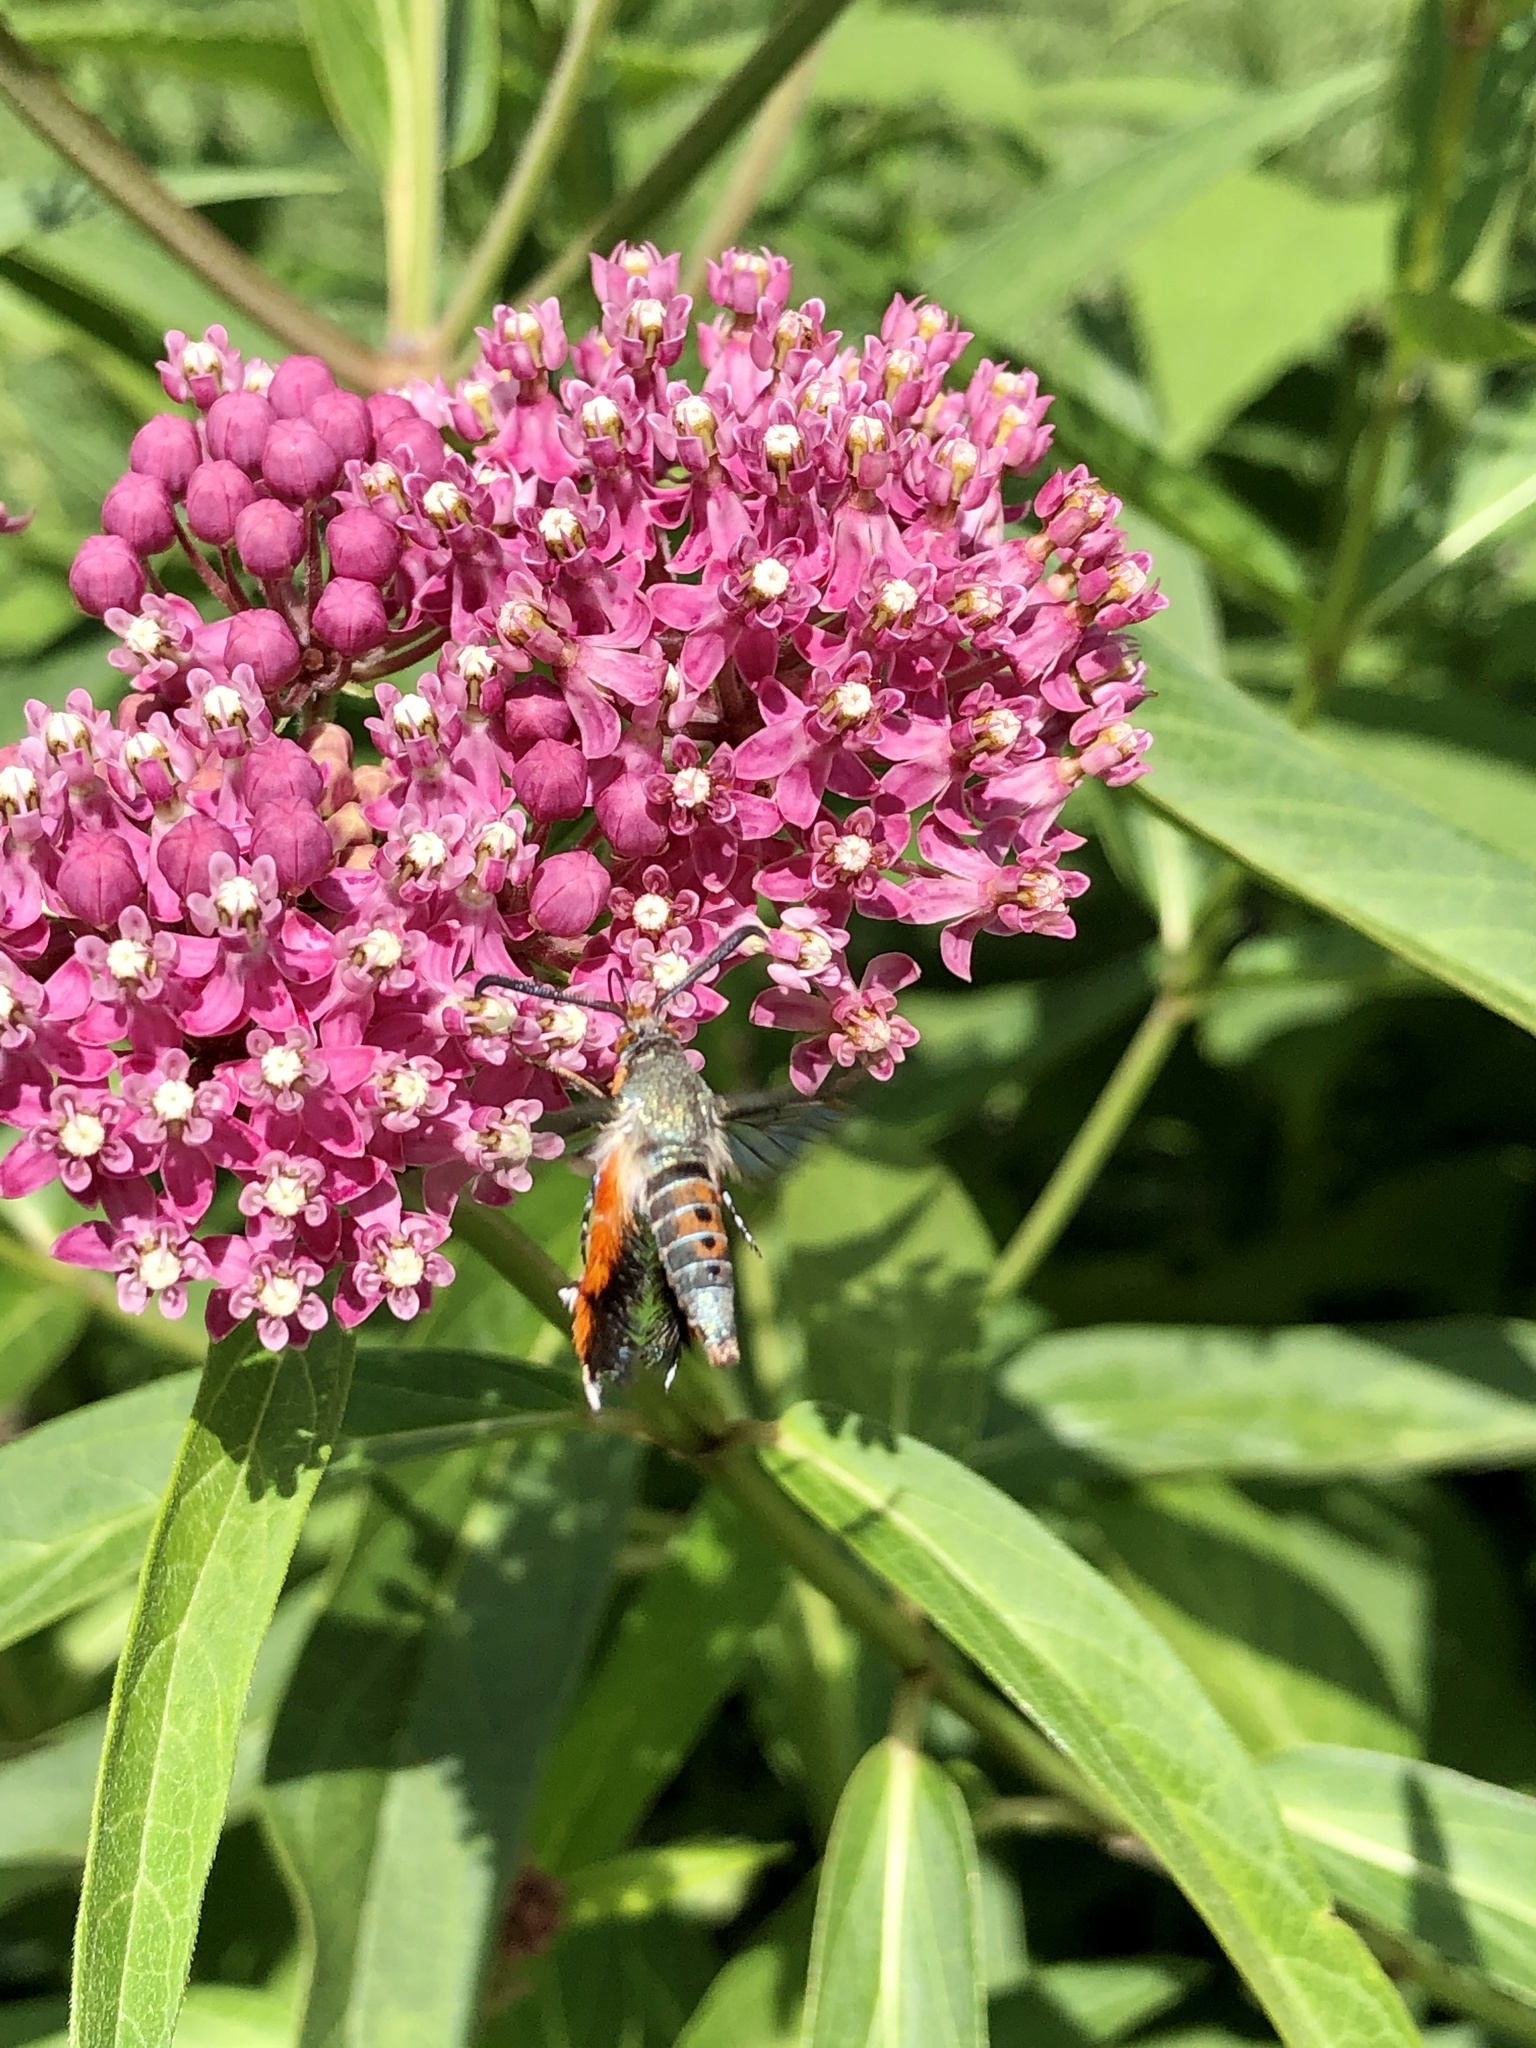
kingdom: Animalia
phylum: Arthropoda
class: Insecta
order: Lepidoptera
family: Sesiidae
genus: Eichlinia
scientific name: Eichlinia cucurbitae
